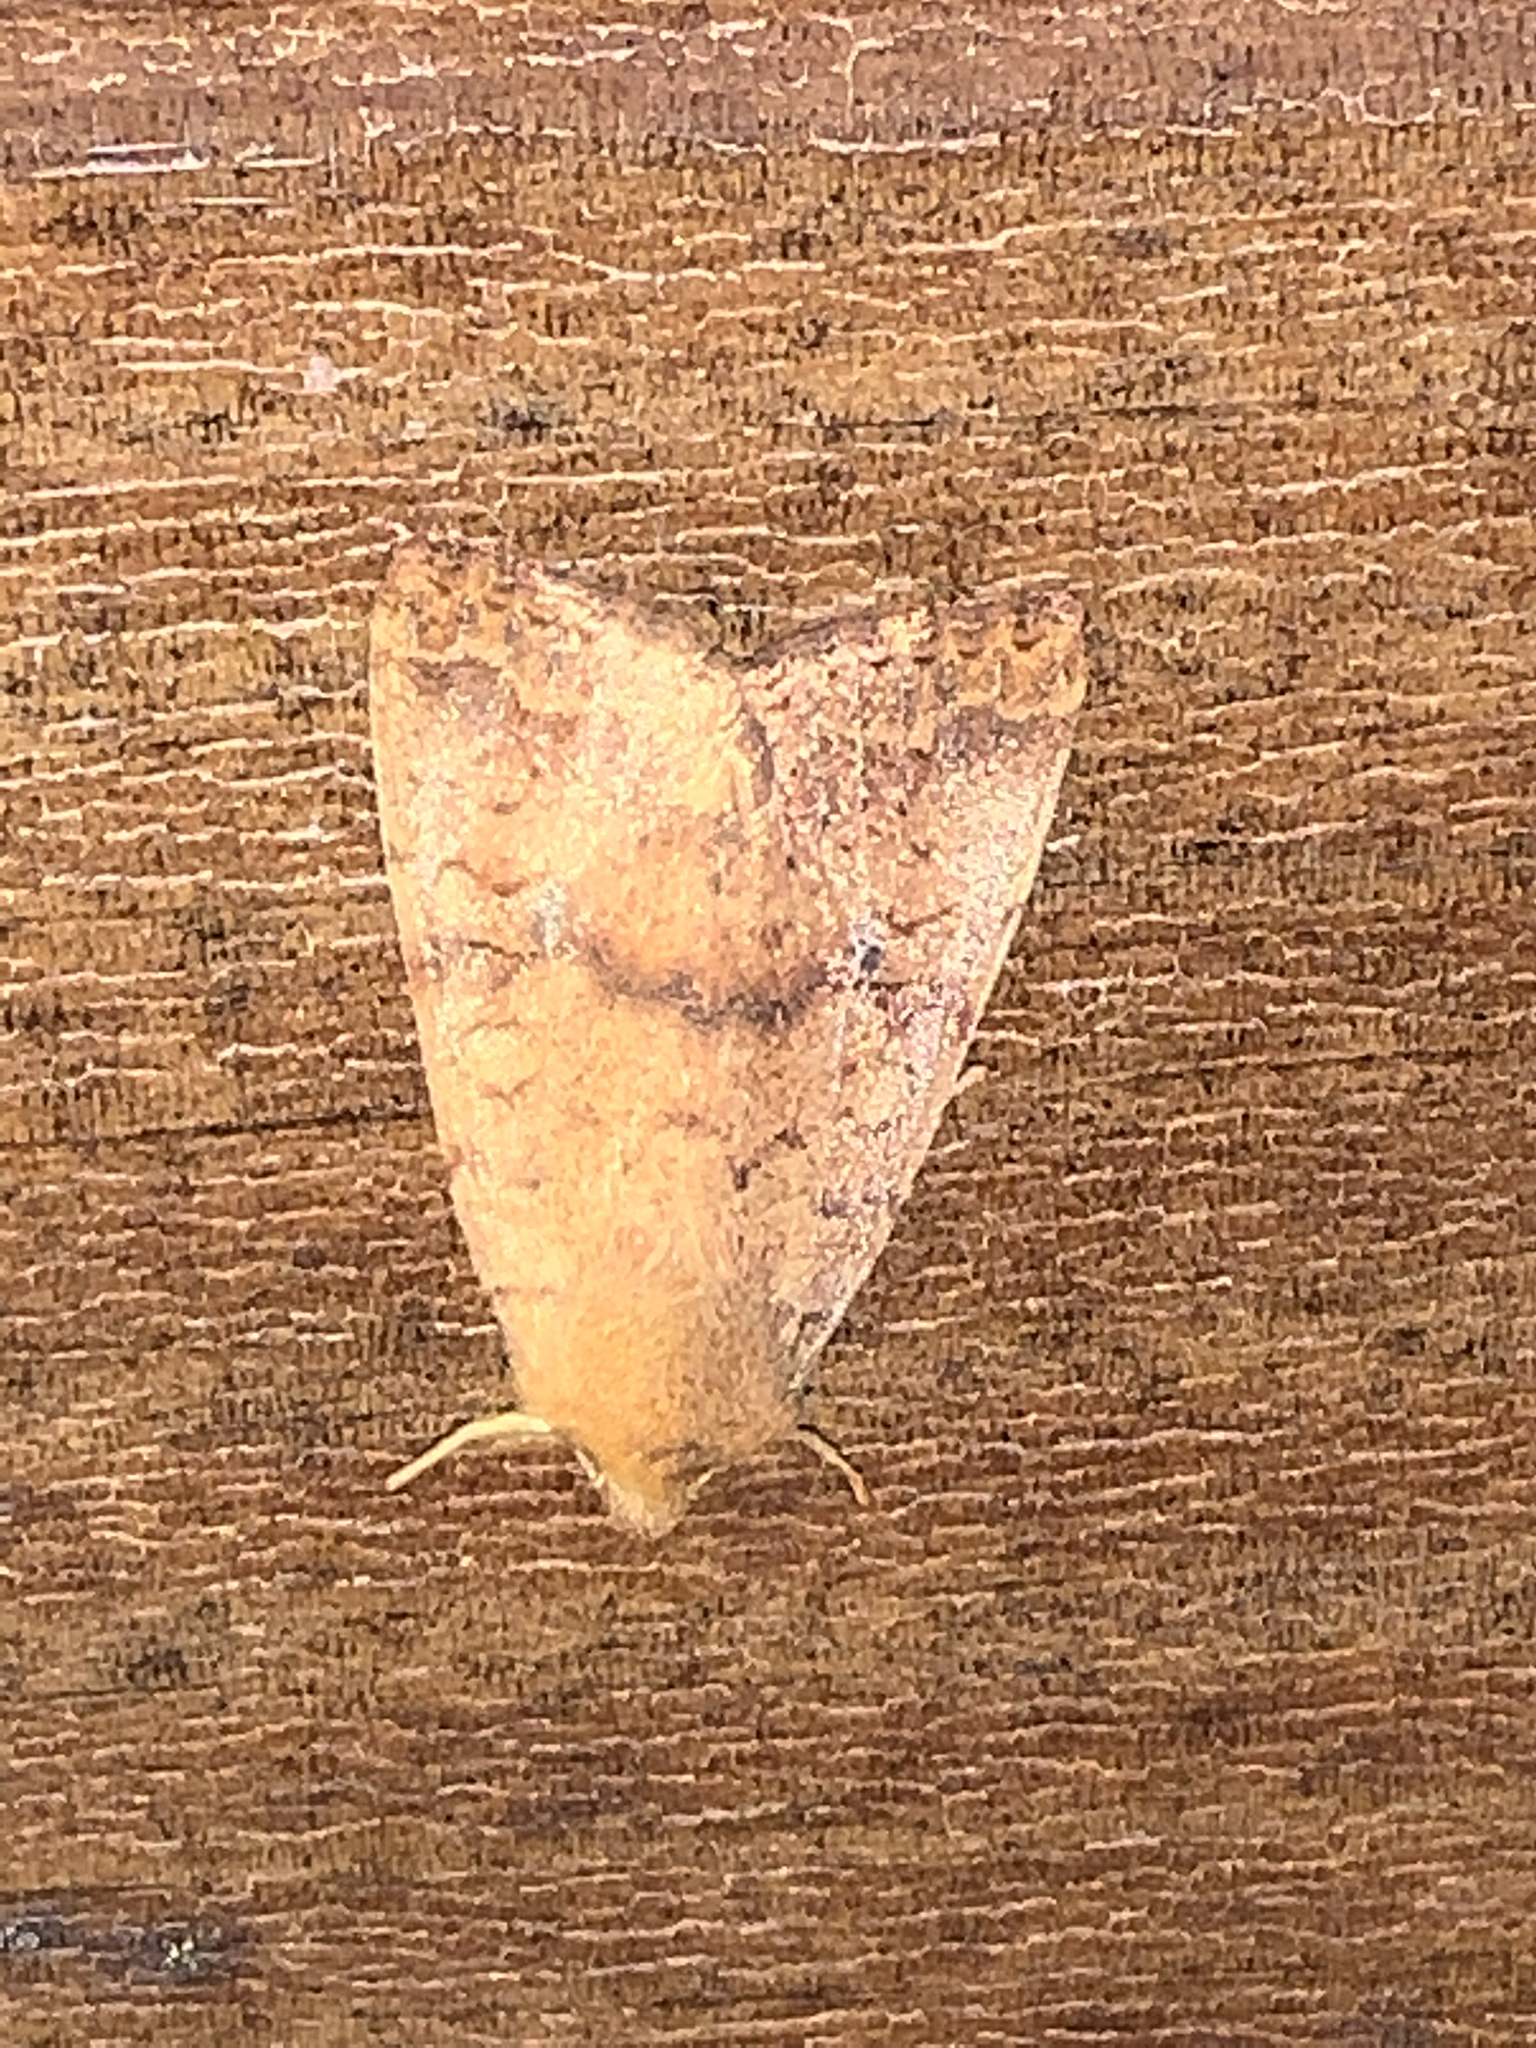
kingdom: Animalia
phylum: Arthropoda
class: Insecta
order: Lepidoptera
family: Noctuidae
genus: Agrochola
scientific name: Agrochola bicolorago
